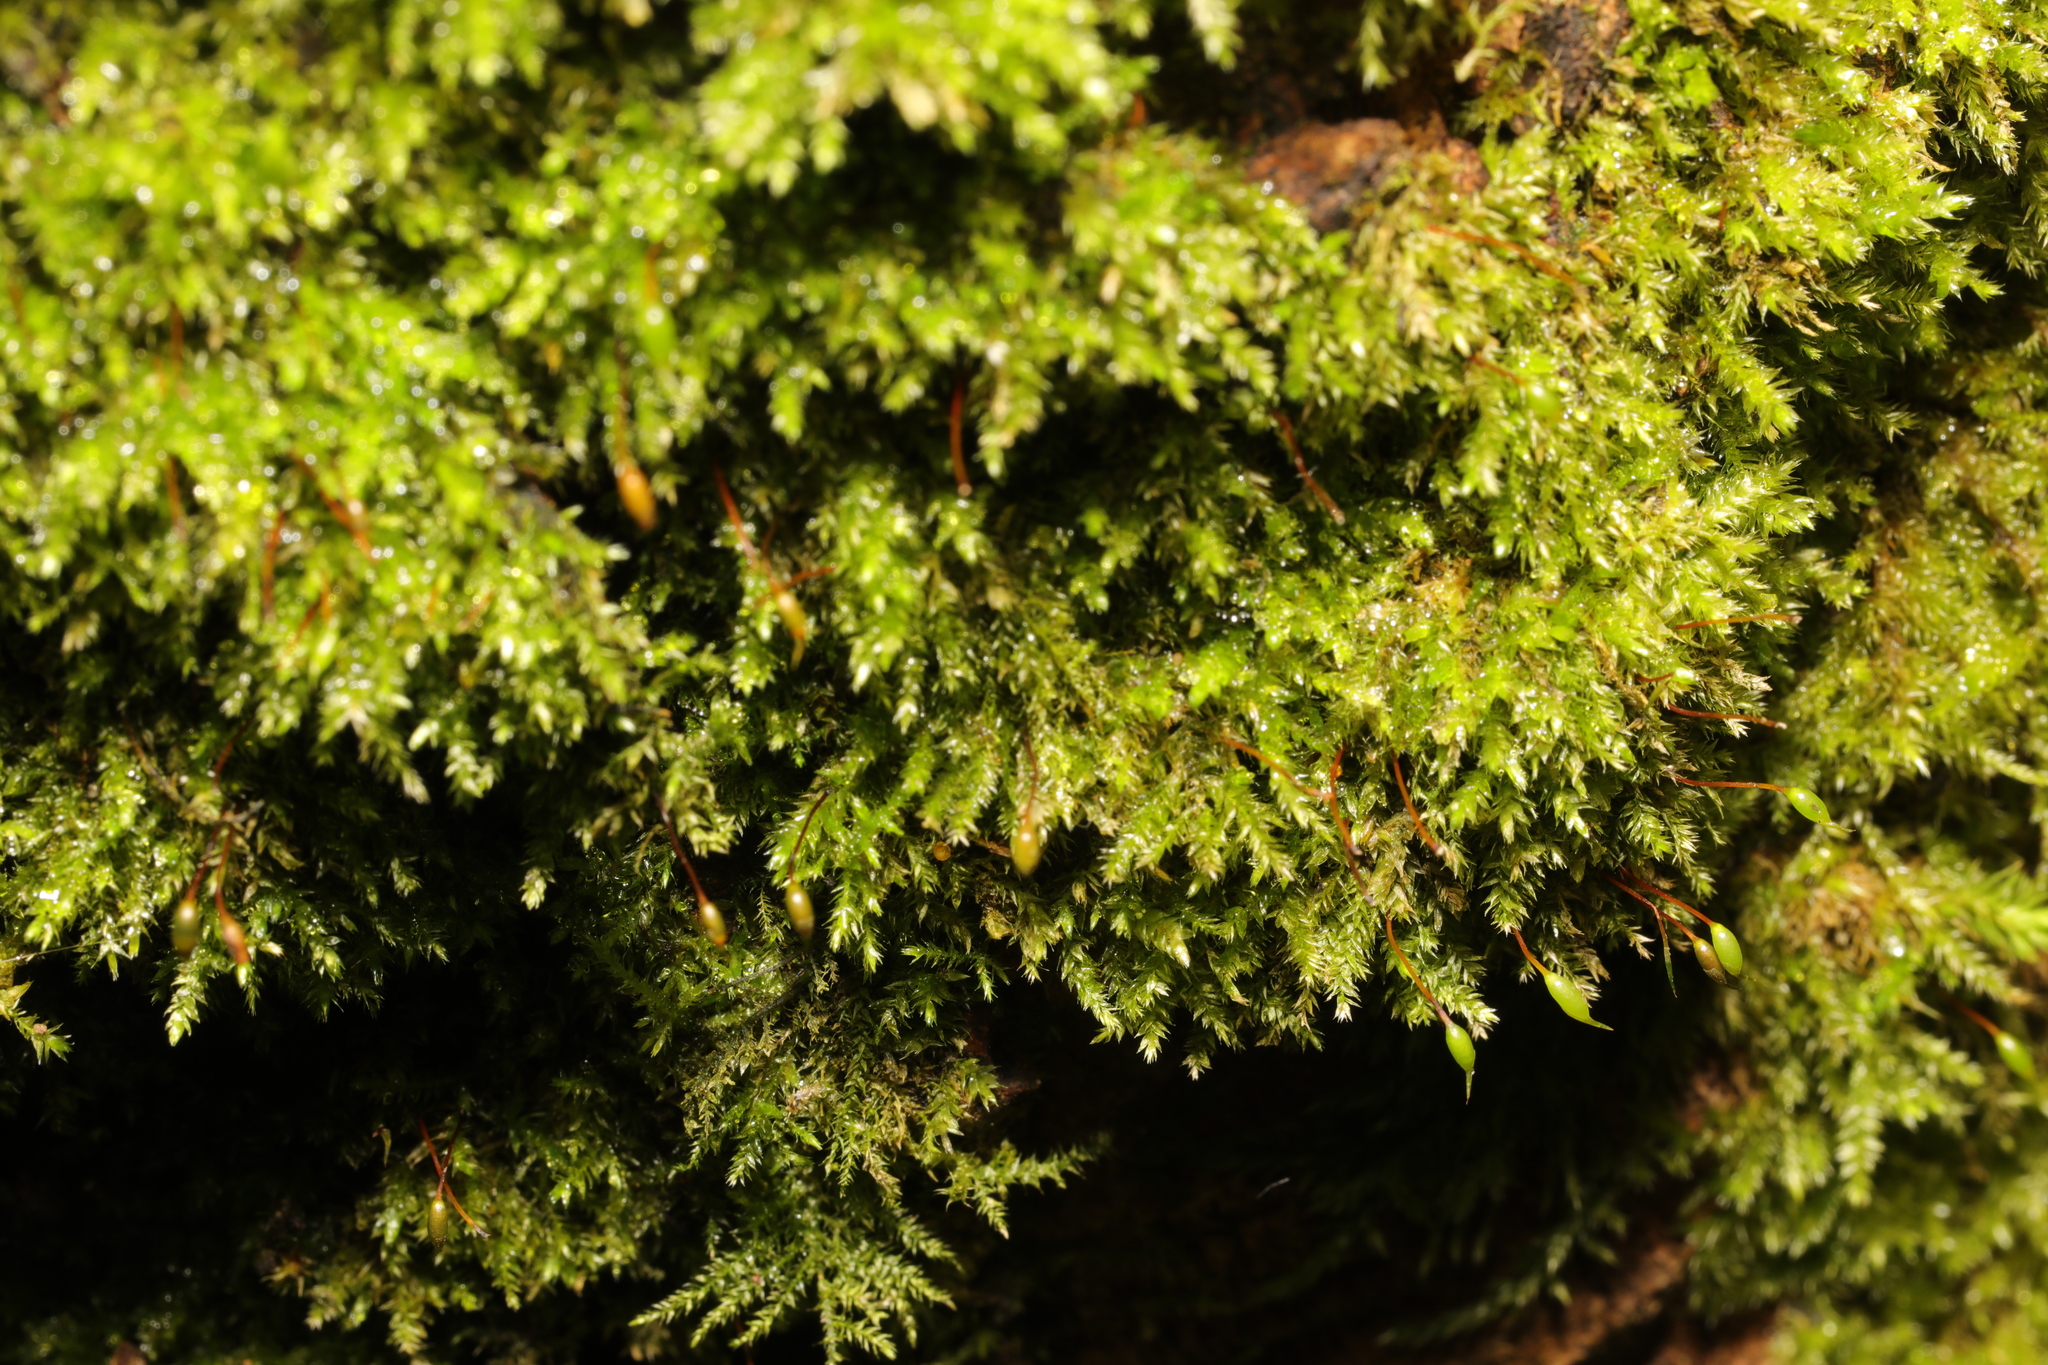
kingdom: Plantae
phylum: Bryophyta
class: Bryopsida
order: Hypnales
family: Brachytheciaceae
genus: Rhynchostegium
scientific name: Rhynchostegium confertum
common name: Clustered feather-moss
